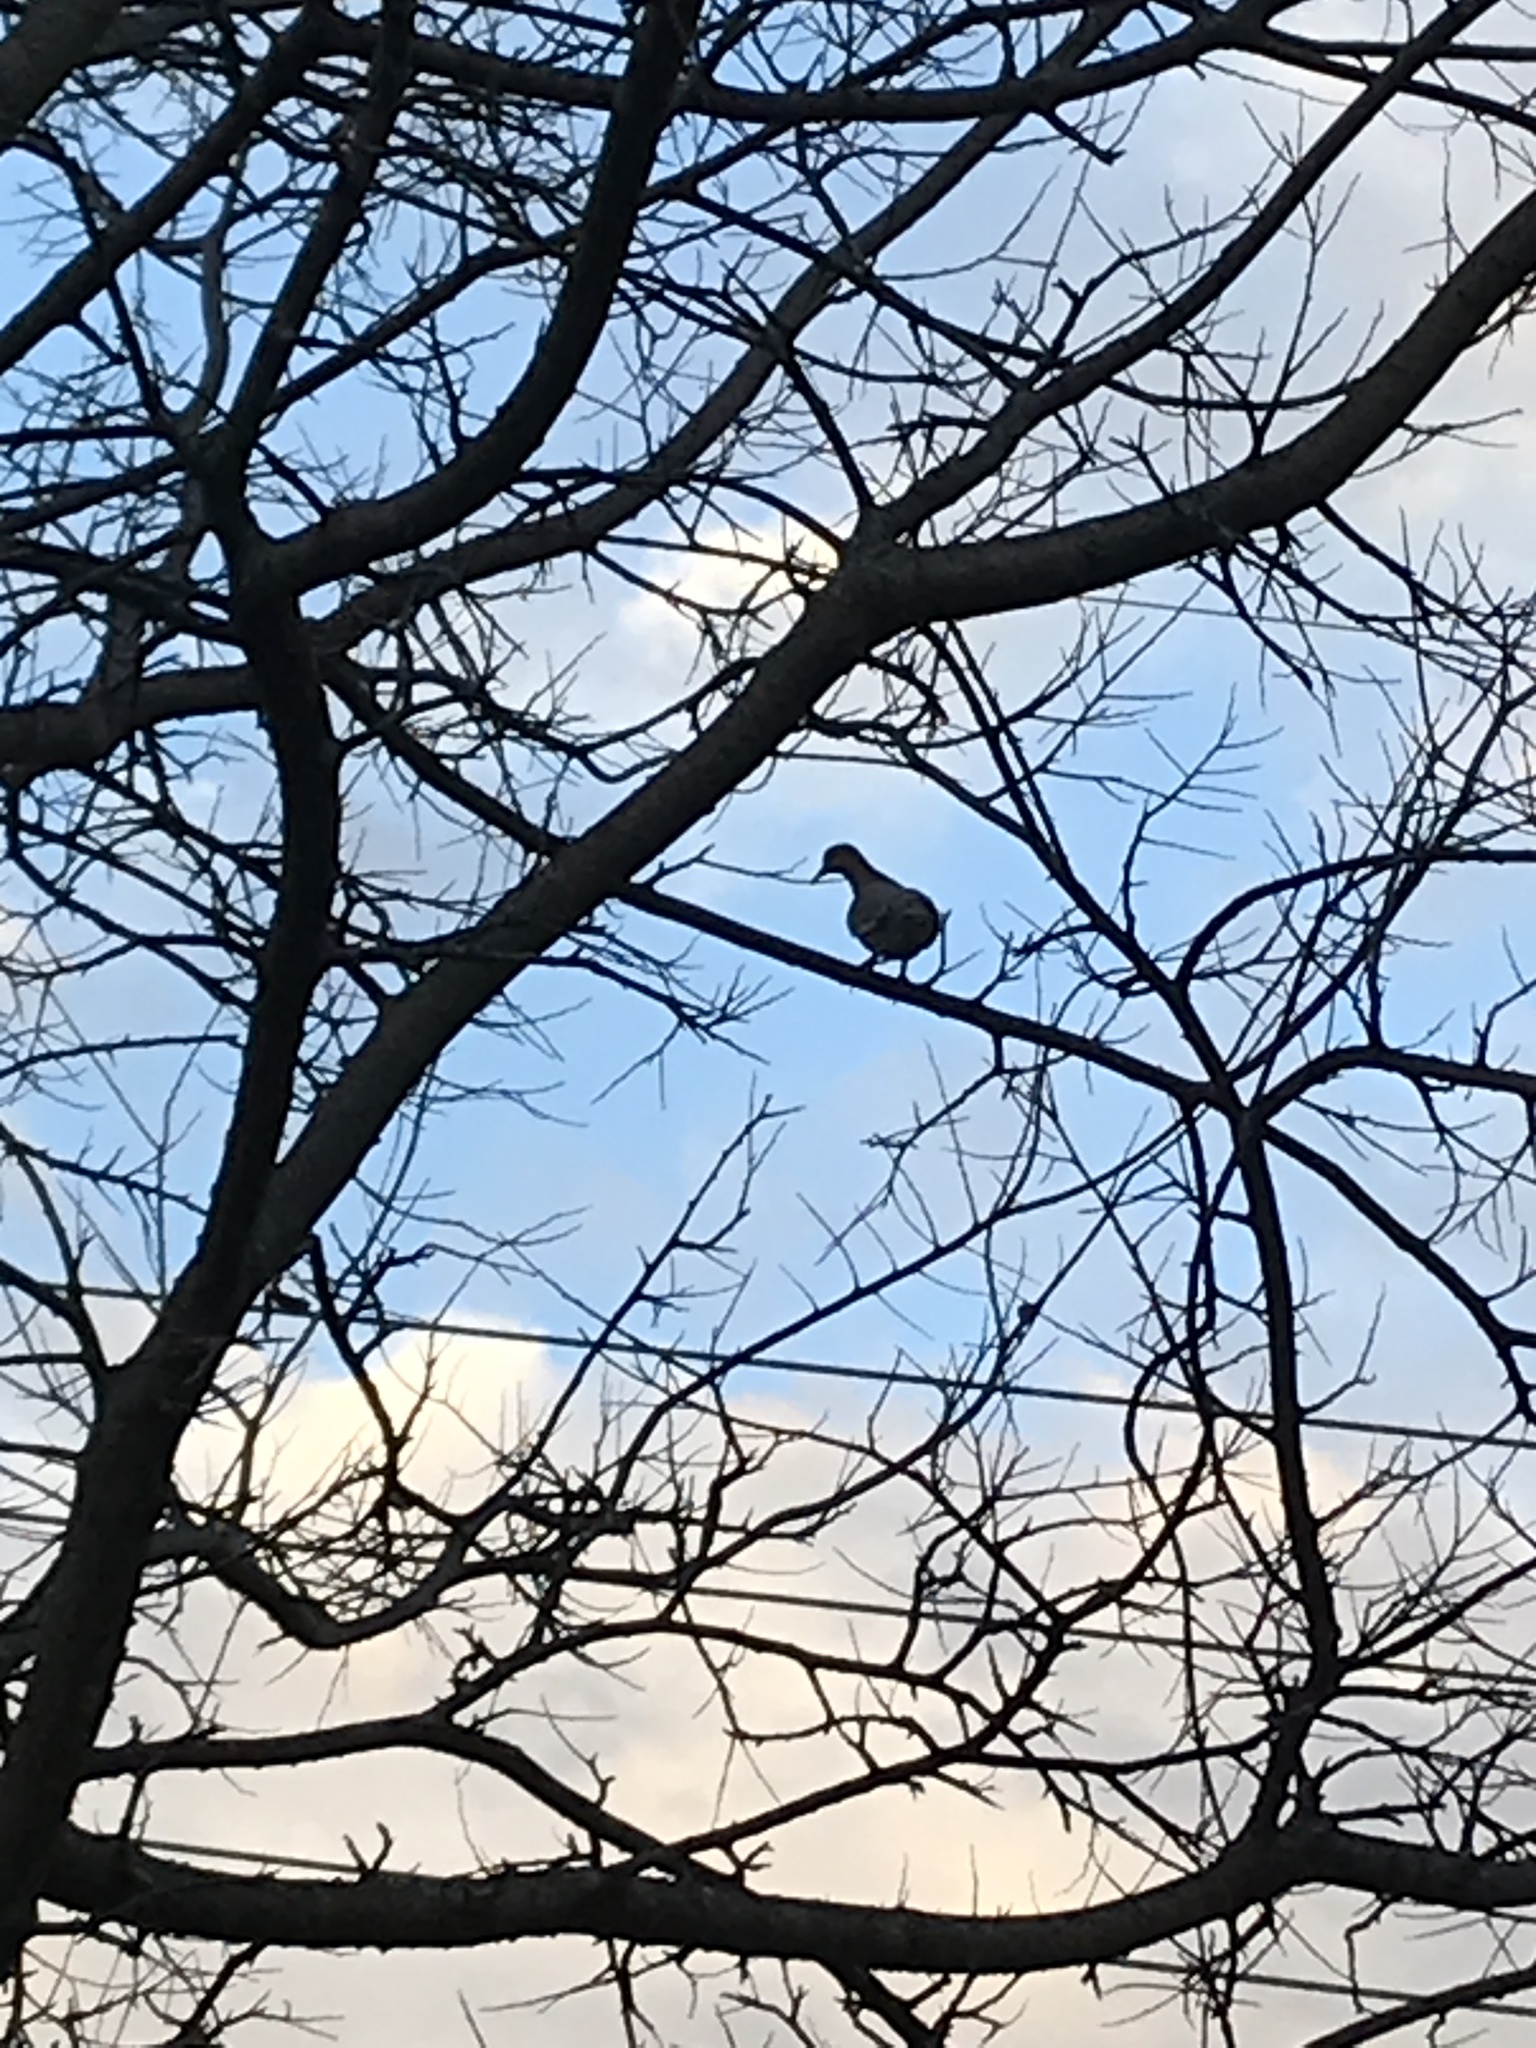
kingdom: Animalia
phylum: Chordata
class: Aves
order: Columbiformes
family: Columbidae
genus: Zenaida
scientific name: Zenaida asiatica
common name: White-winged dove
